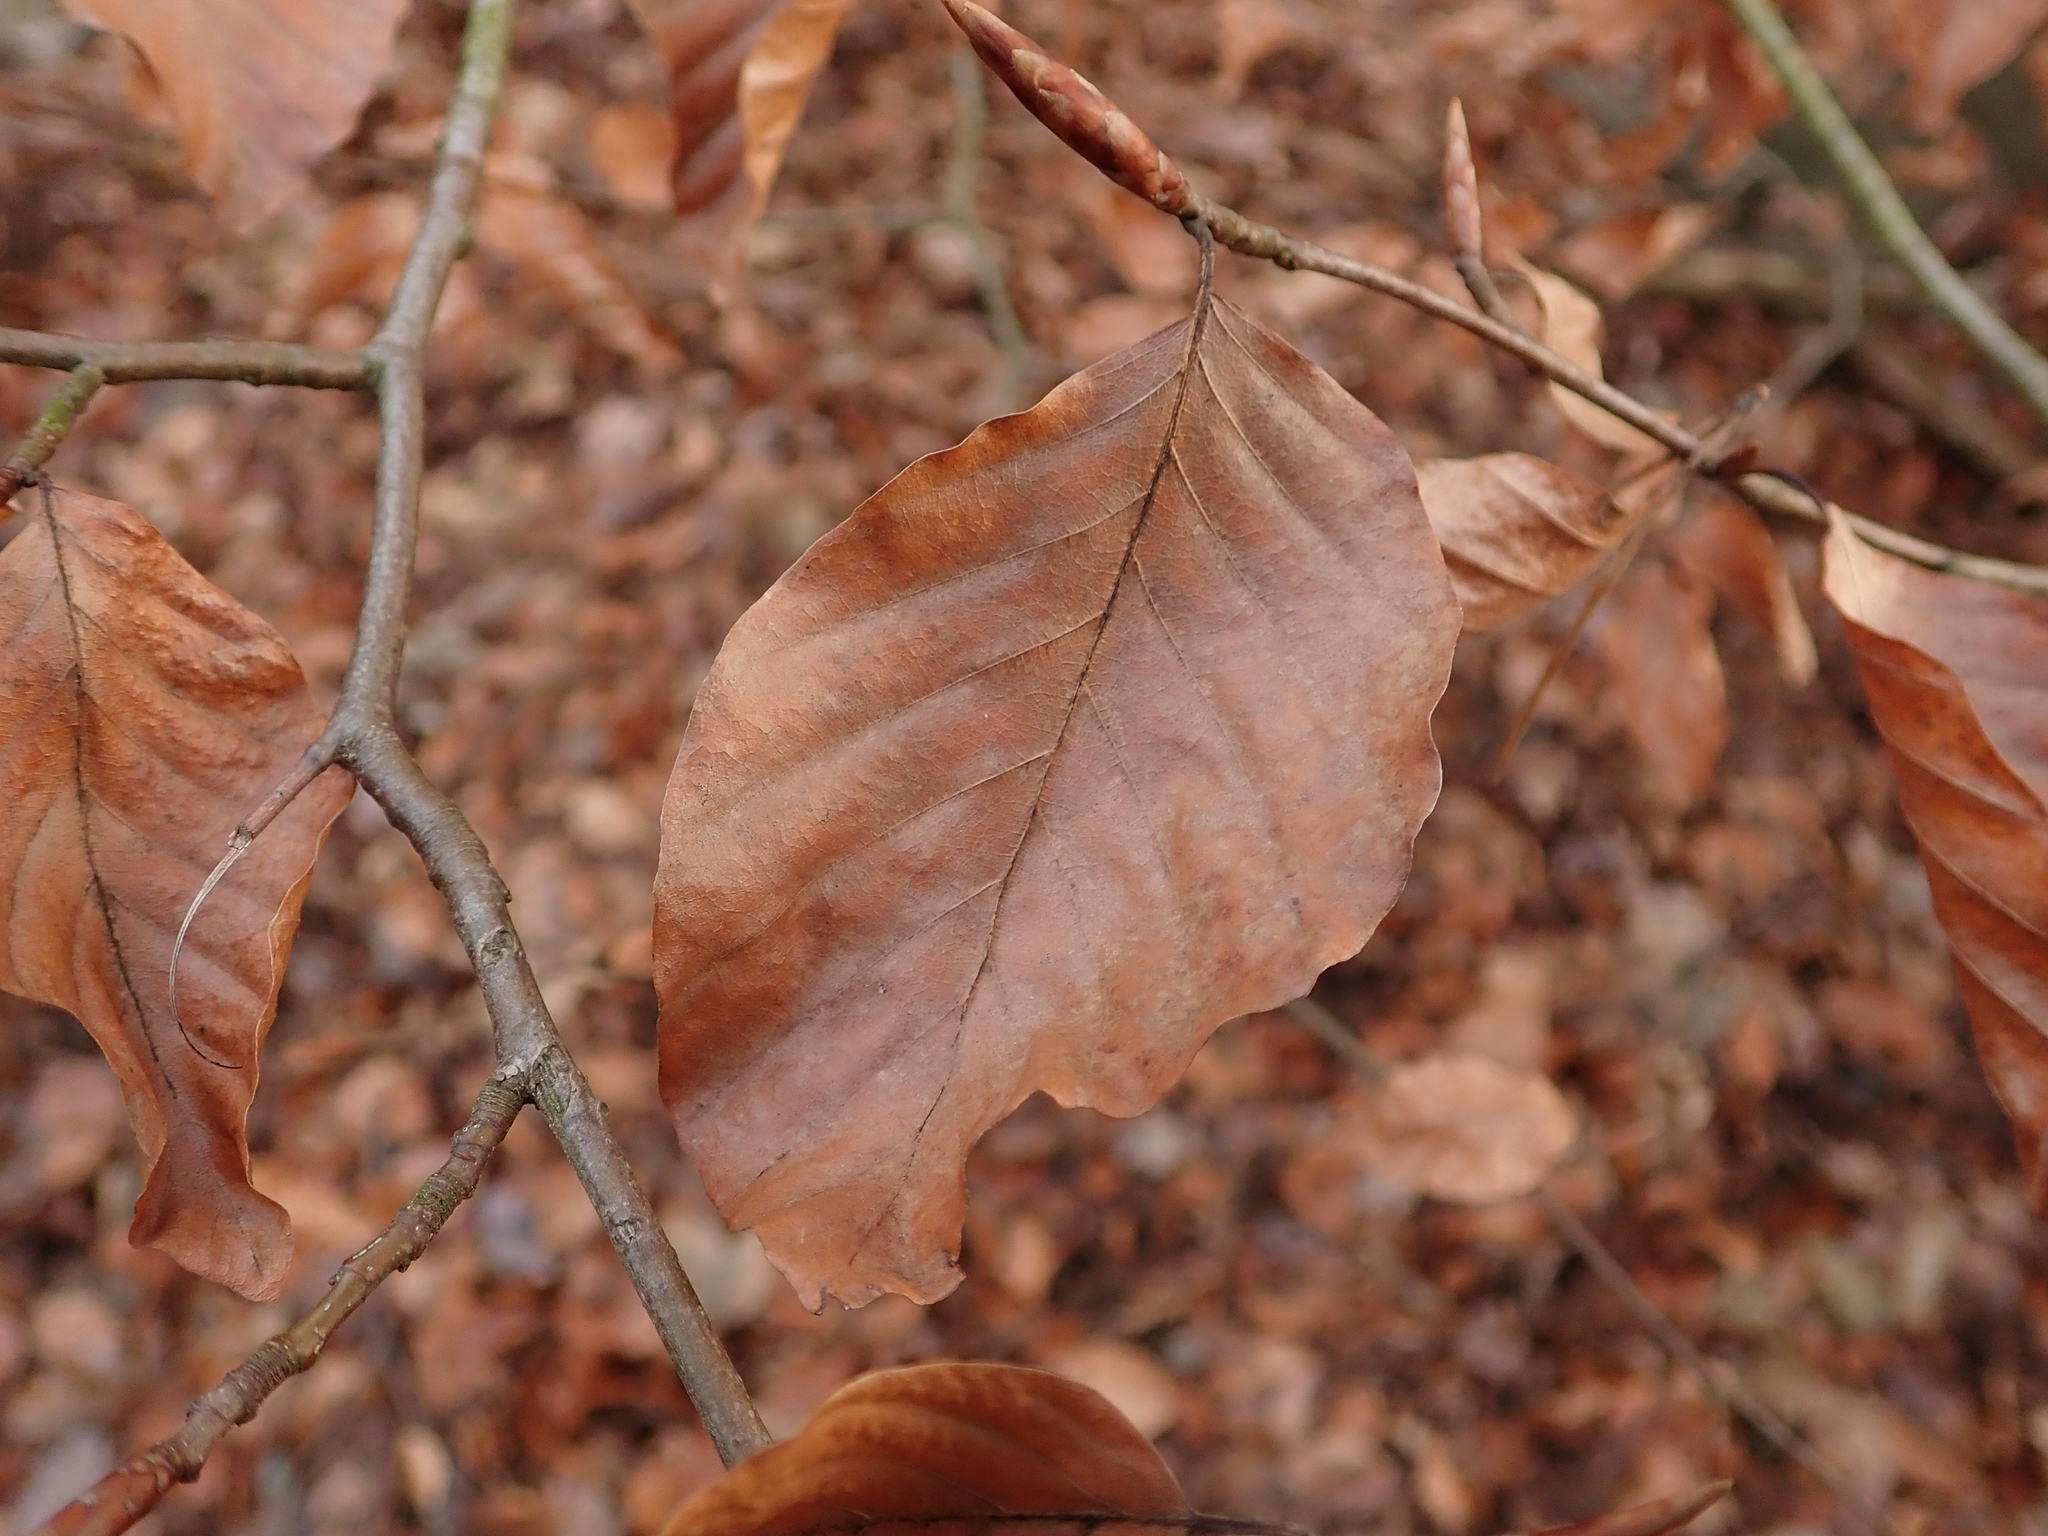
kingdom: Plantae
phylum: Tracheophyta
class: Magnoliopsida
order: Fagales
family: Fagaceae
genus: Fagus
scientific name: Fagus sylvatica
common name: Beech
